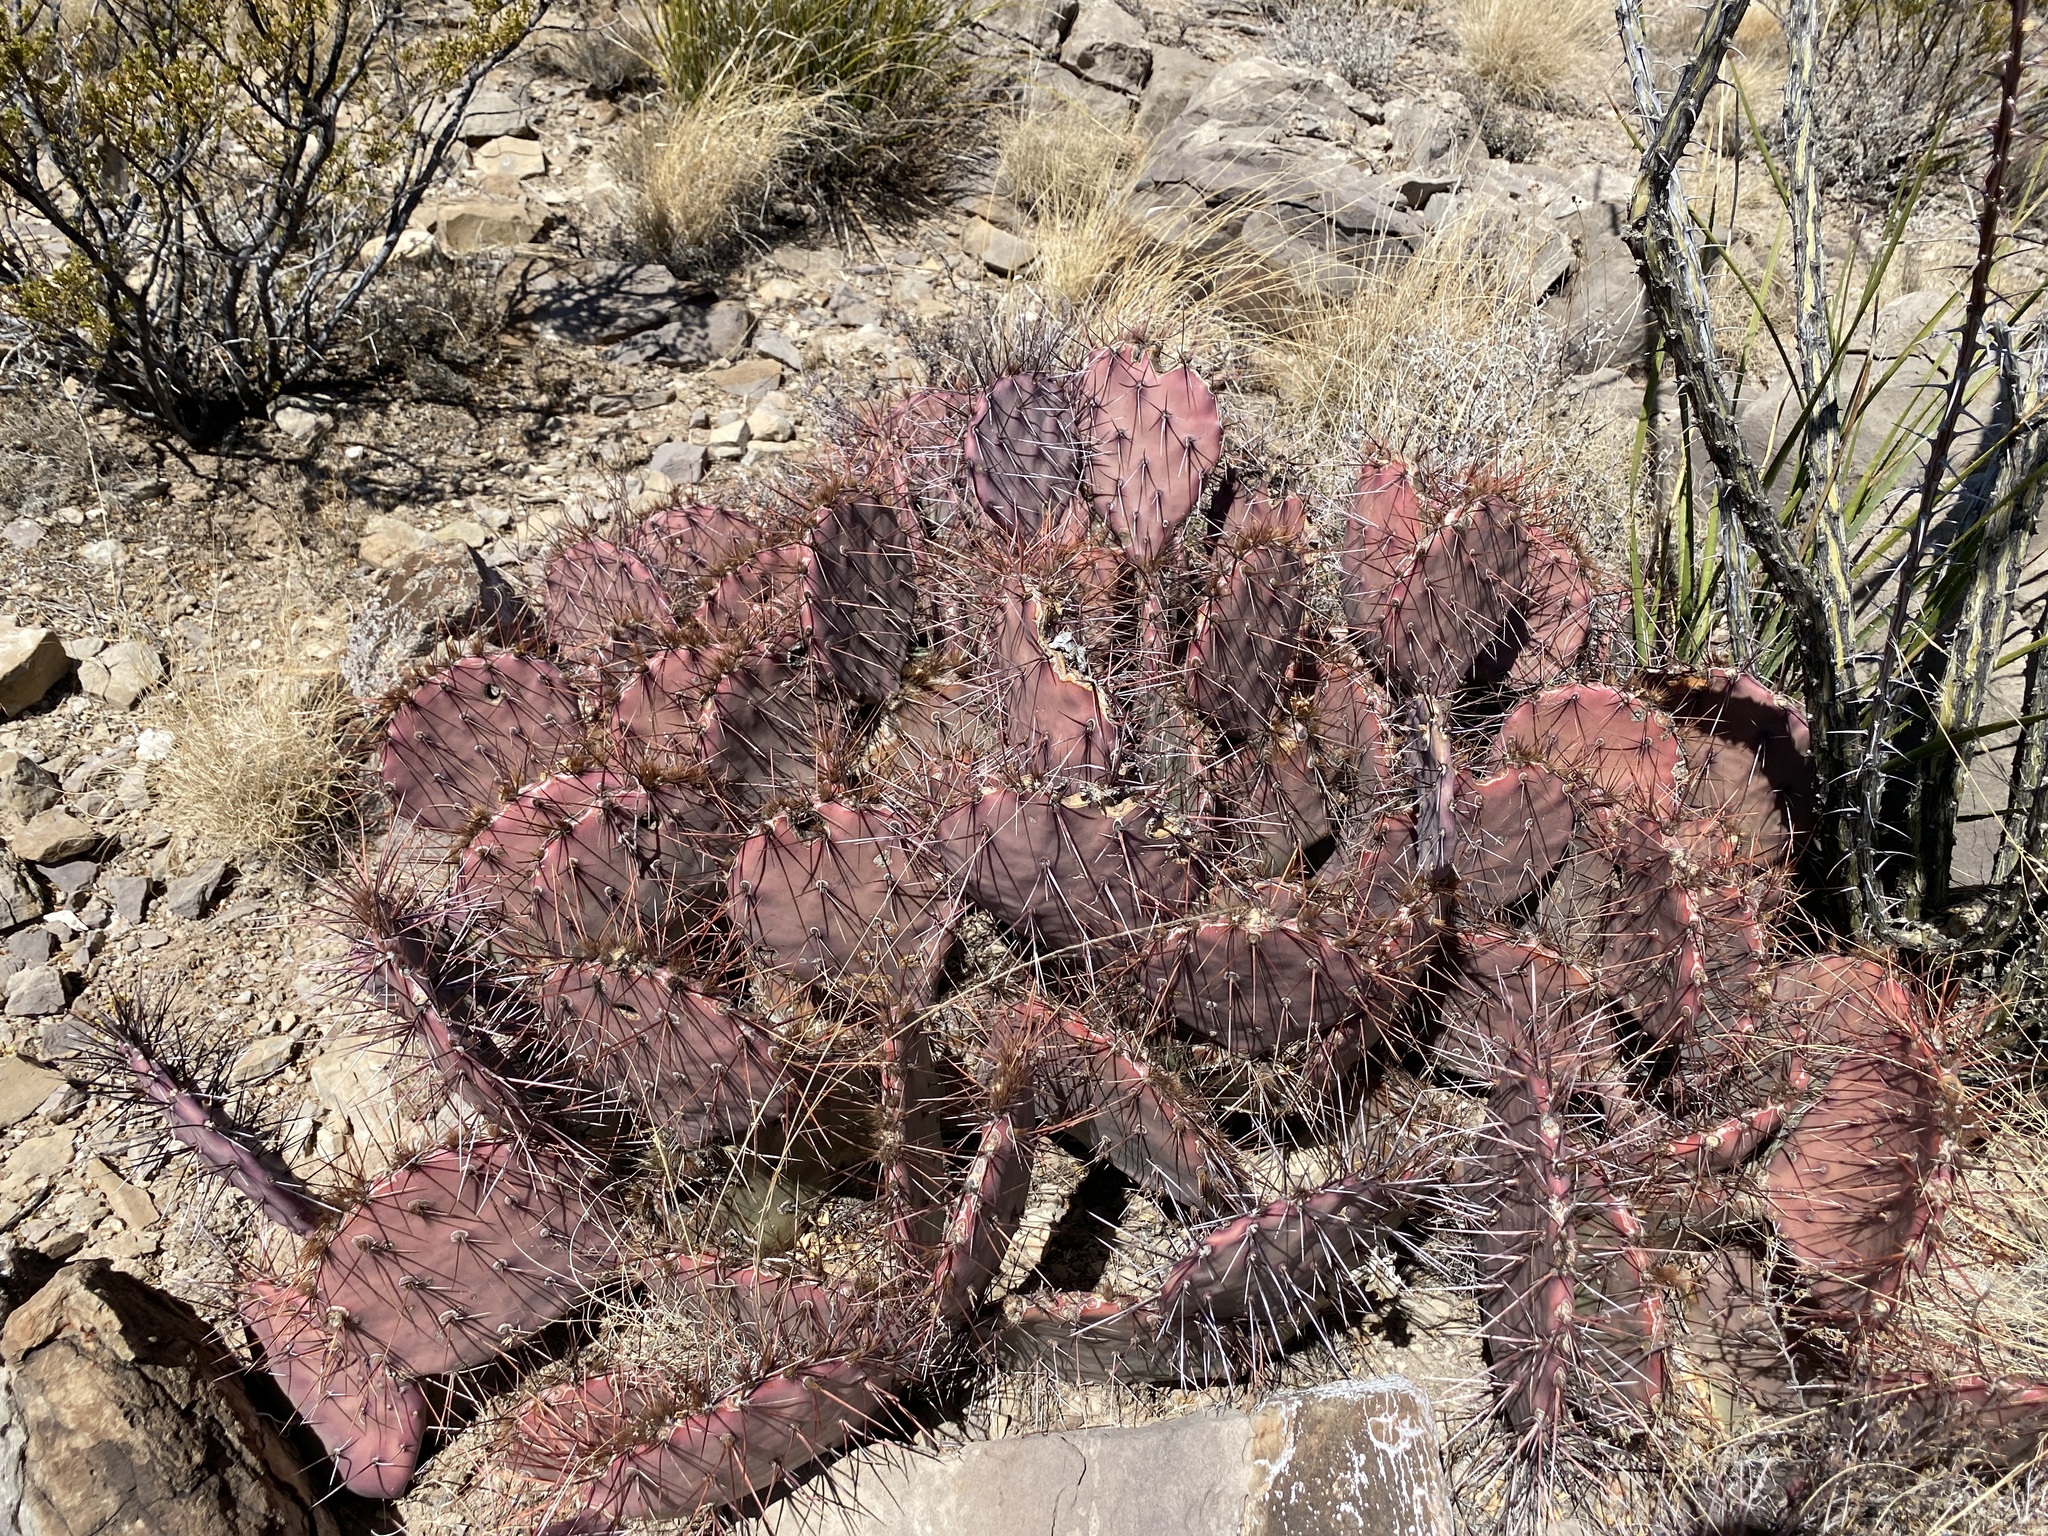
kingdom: Plantae
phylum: Tracheophyta
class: Magnoliopsida
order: Caryophyllales
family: Cactaceae
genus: Opuntia
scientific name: Opuntia macrocentra
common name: Purple prickly-pear
